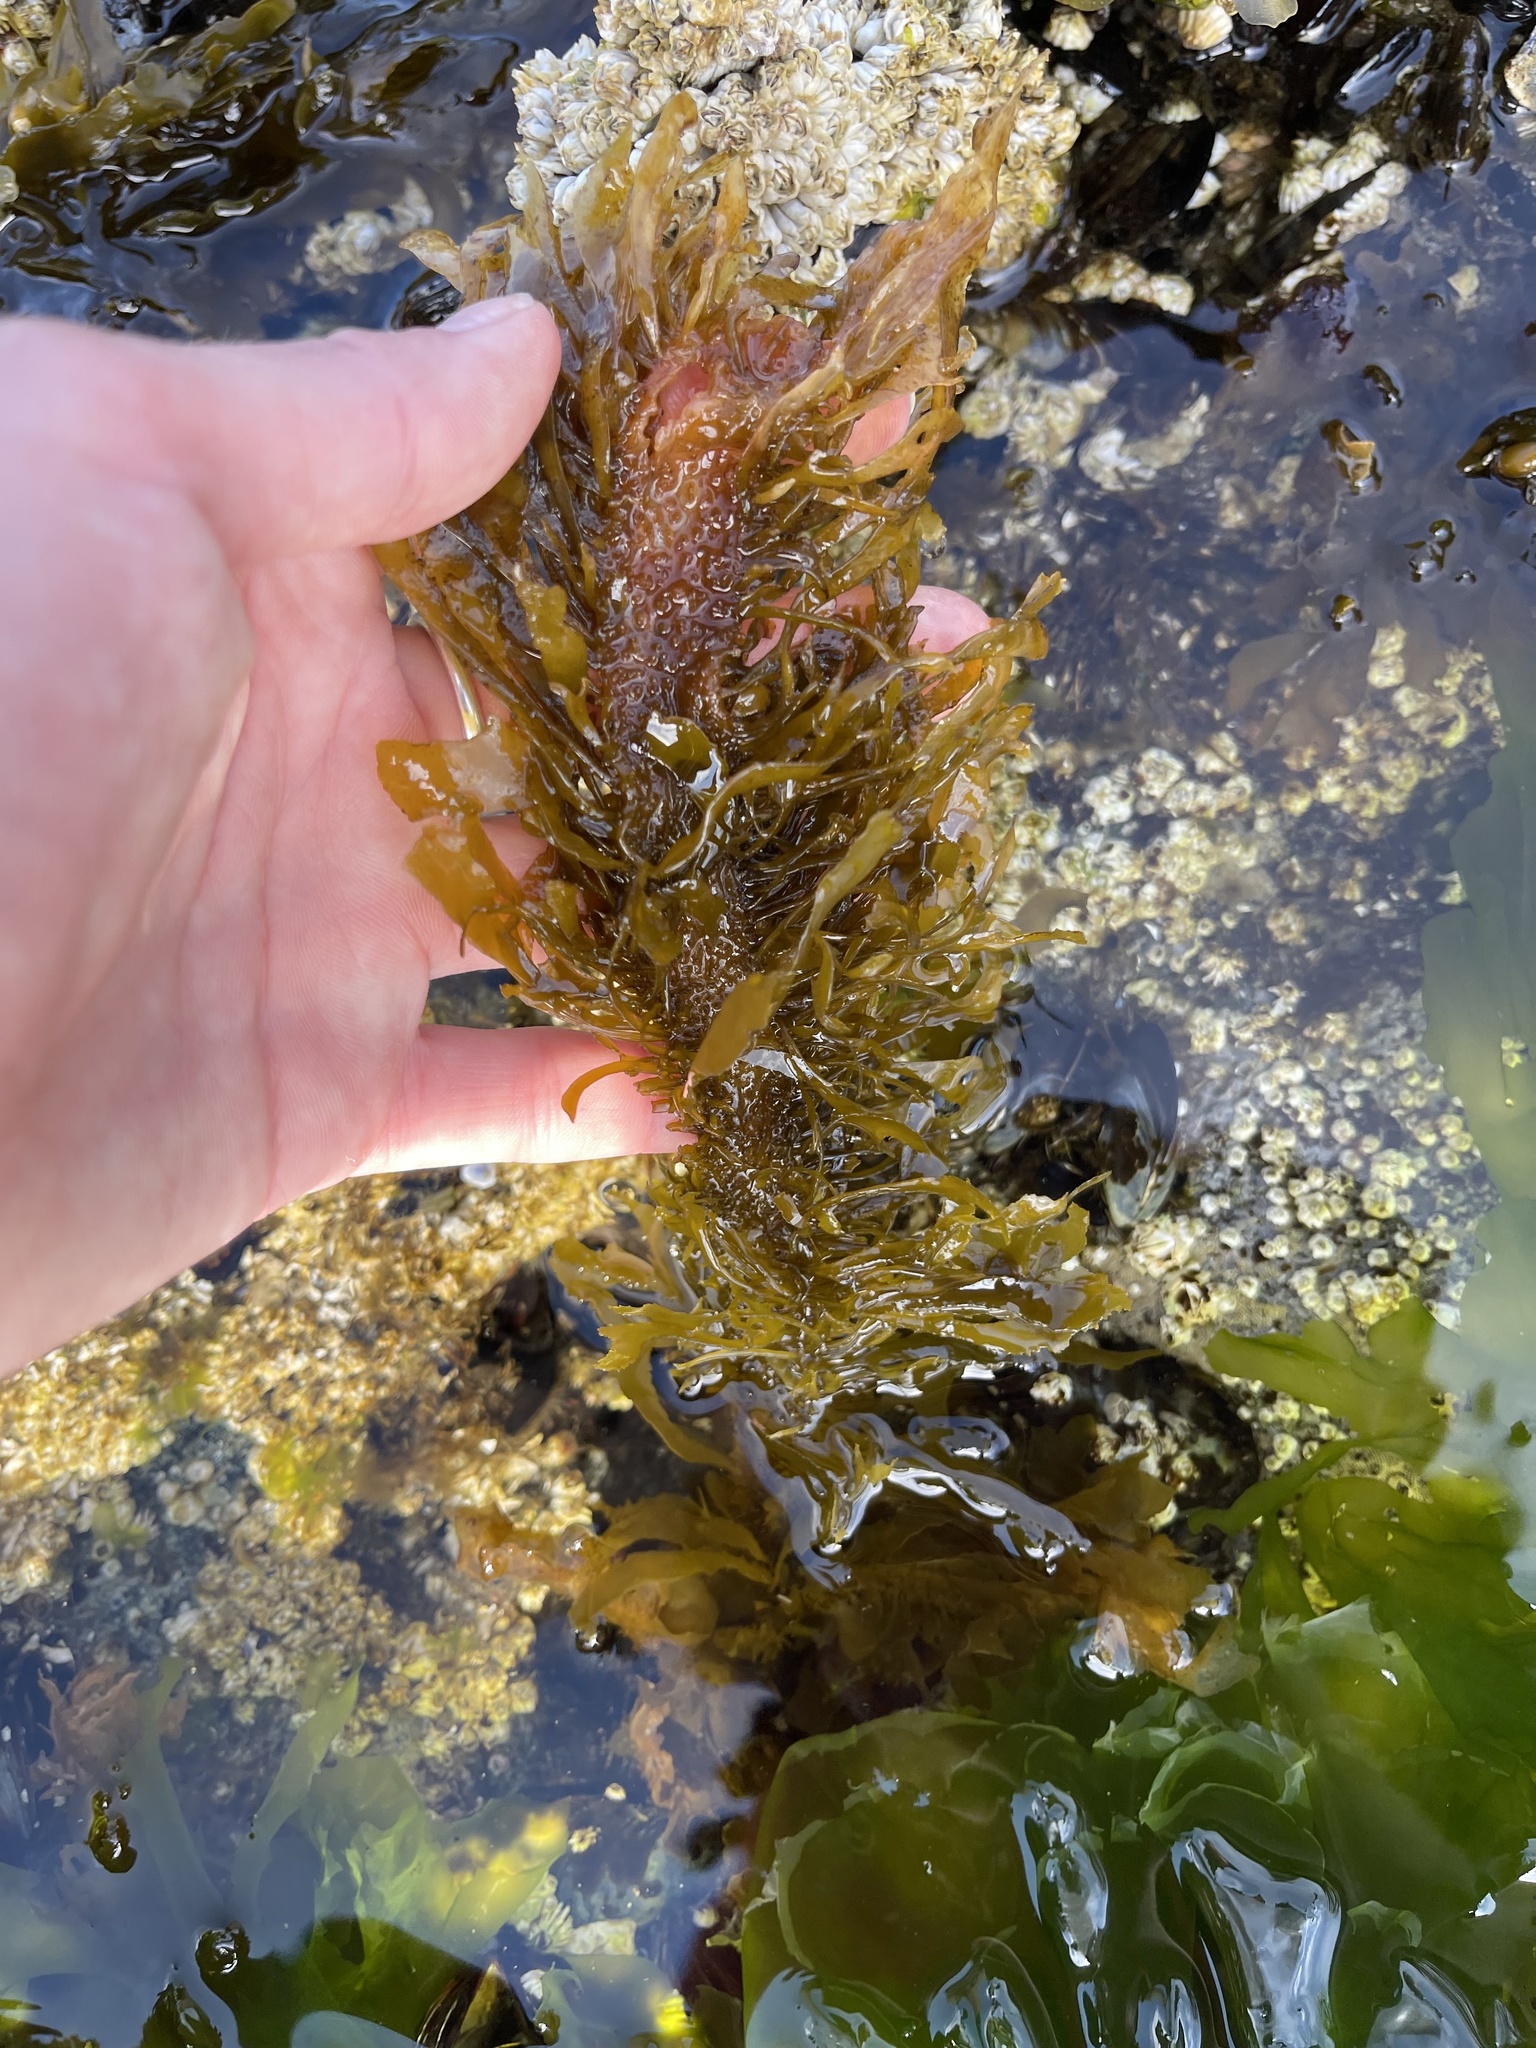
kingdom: Chromista
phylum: Ochrophyta
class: Phaeophyceae
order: Laminariales
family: Lessoniaceae
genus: Egregia
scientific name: Egregia menziesii
